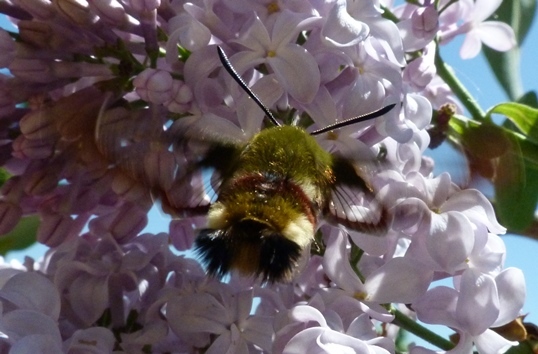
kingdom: Animalia
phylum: Arthropoda
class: Insecta
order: Lepidoptera
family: Sphingidae
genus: Hemaris
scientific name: Hemaris fuciformis
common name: Broad-bordered bee hawk-moth
